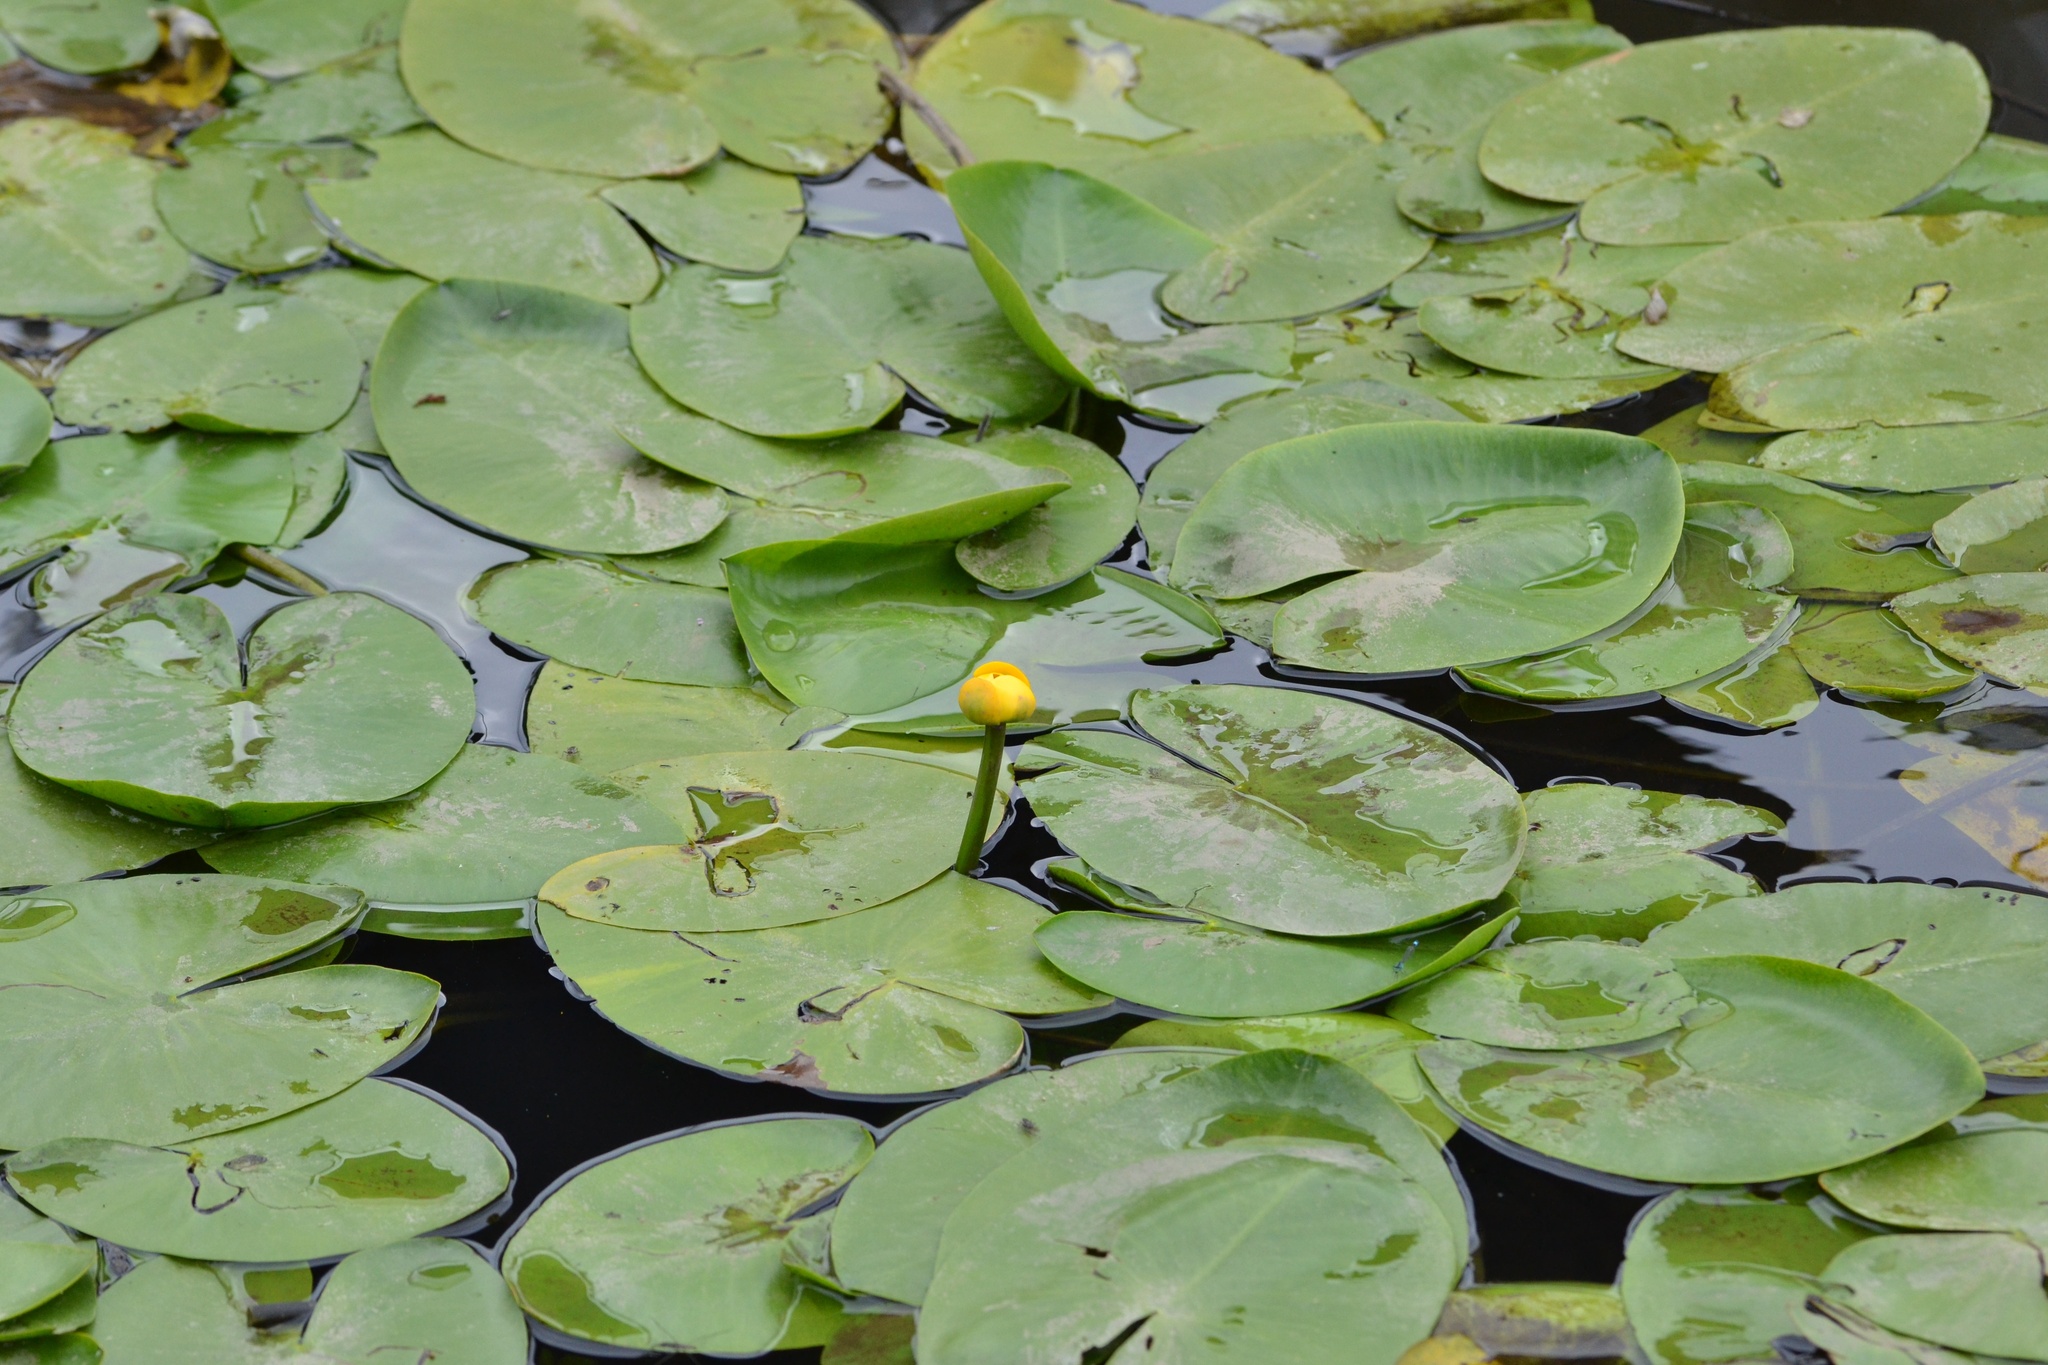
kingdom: Plantae
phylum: Tracheophyta
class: Magnoliopsida
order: Nymphaeales
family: Nymphaeaceae
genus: Nuphar
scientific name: Nuphar lutea
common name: Yellow water-lily
